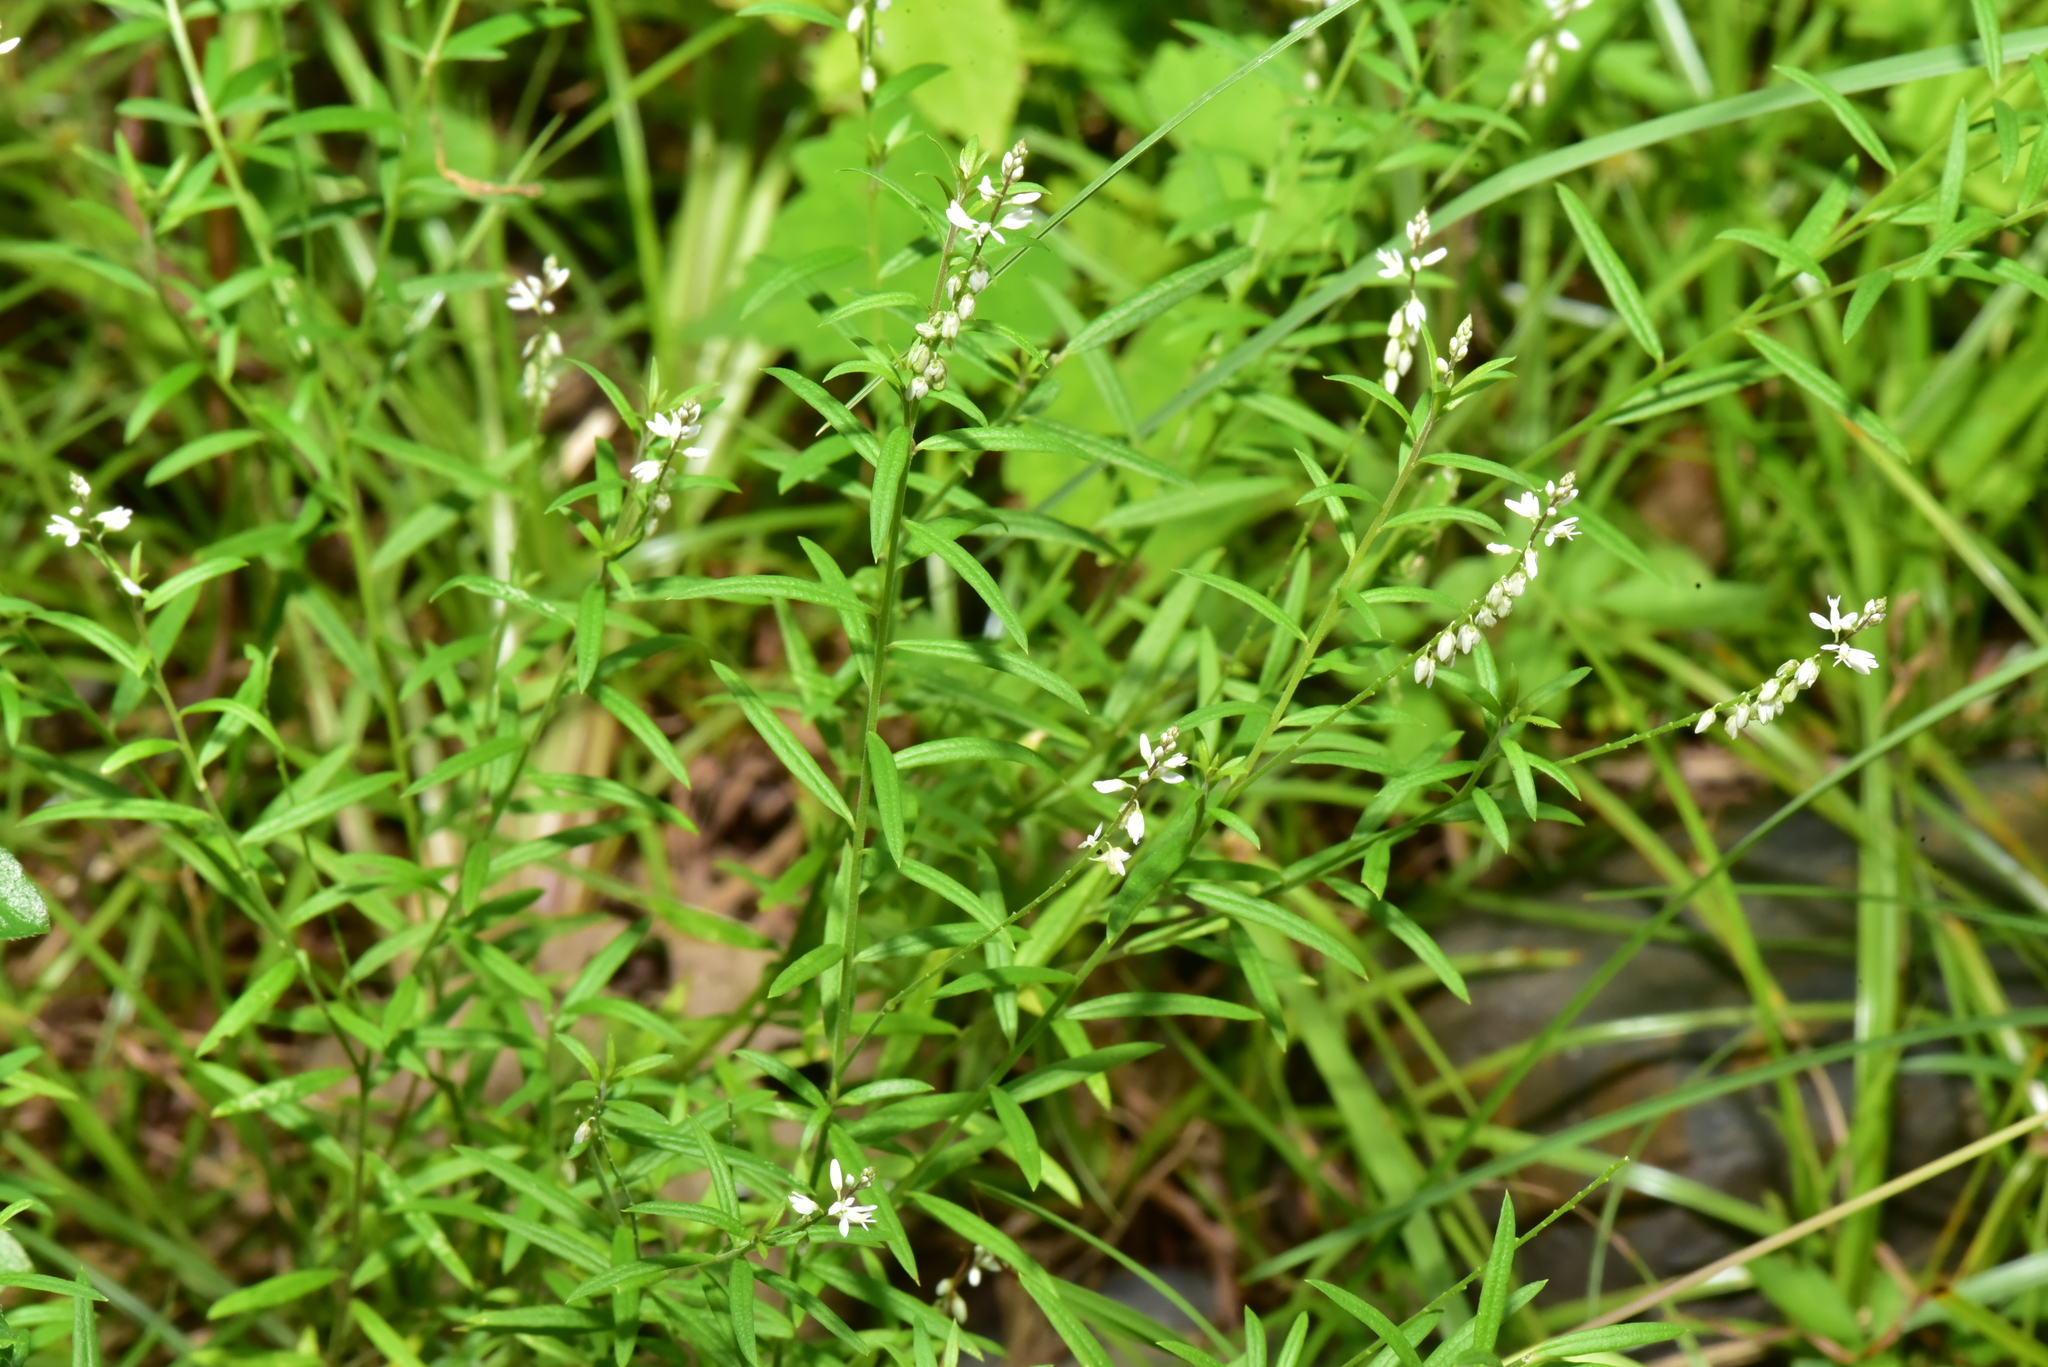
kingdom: Plantae
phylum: Tracheophyta
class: Magnoliopsida
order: Fabales
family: Polygalaceae
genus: Polygala
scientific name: Polygala paniculata
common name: Orosne
